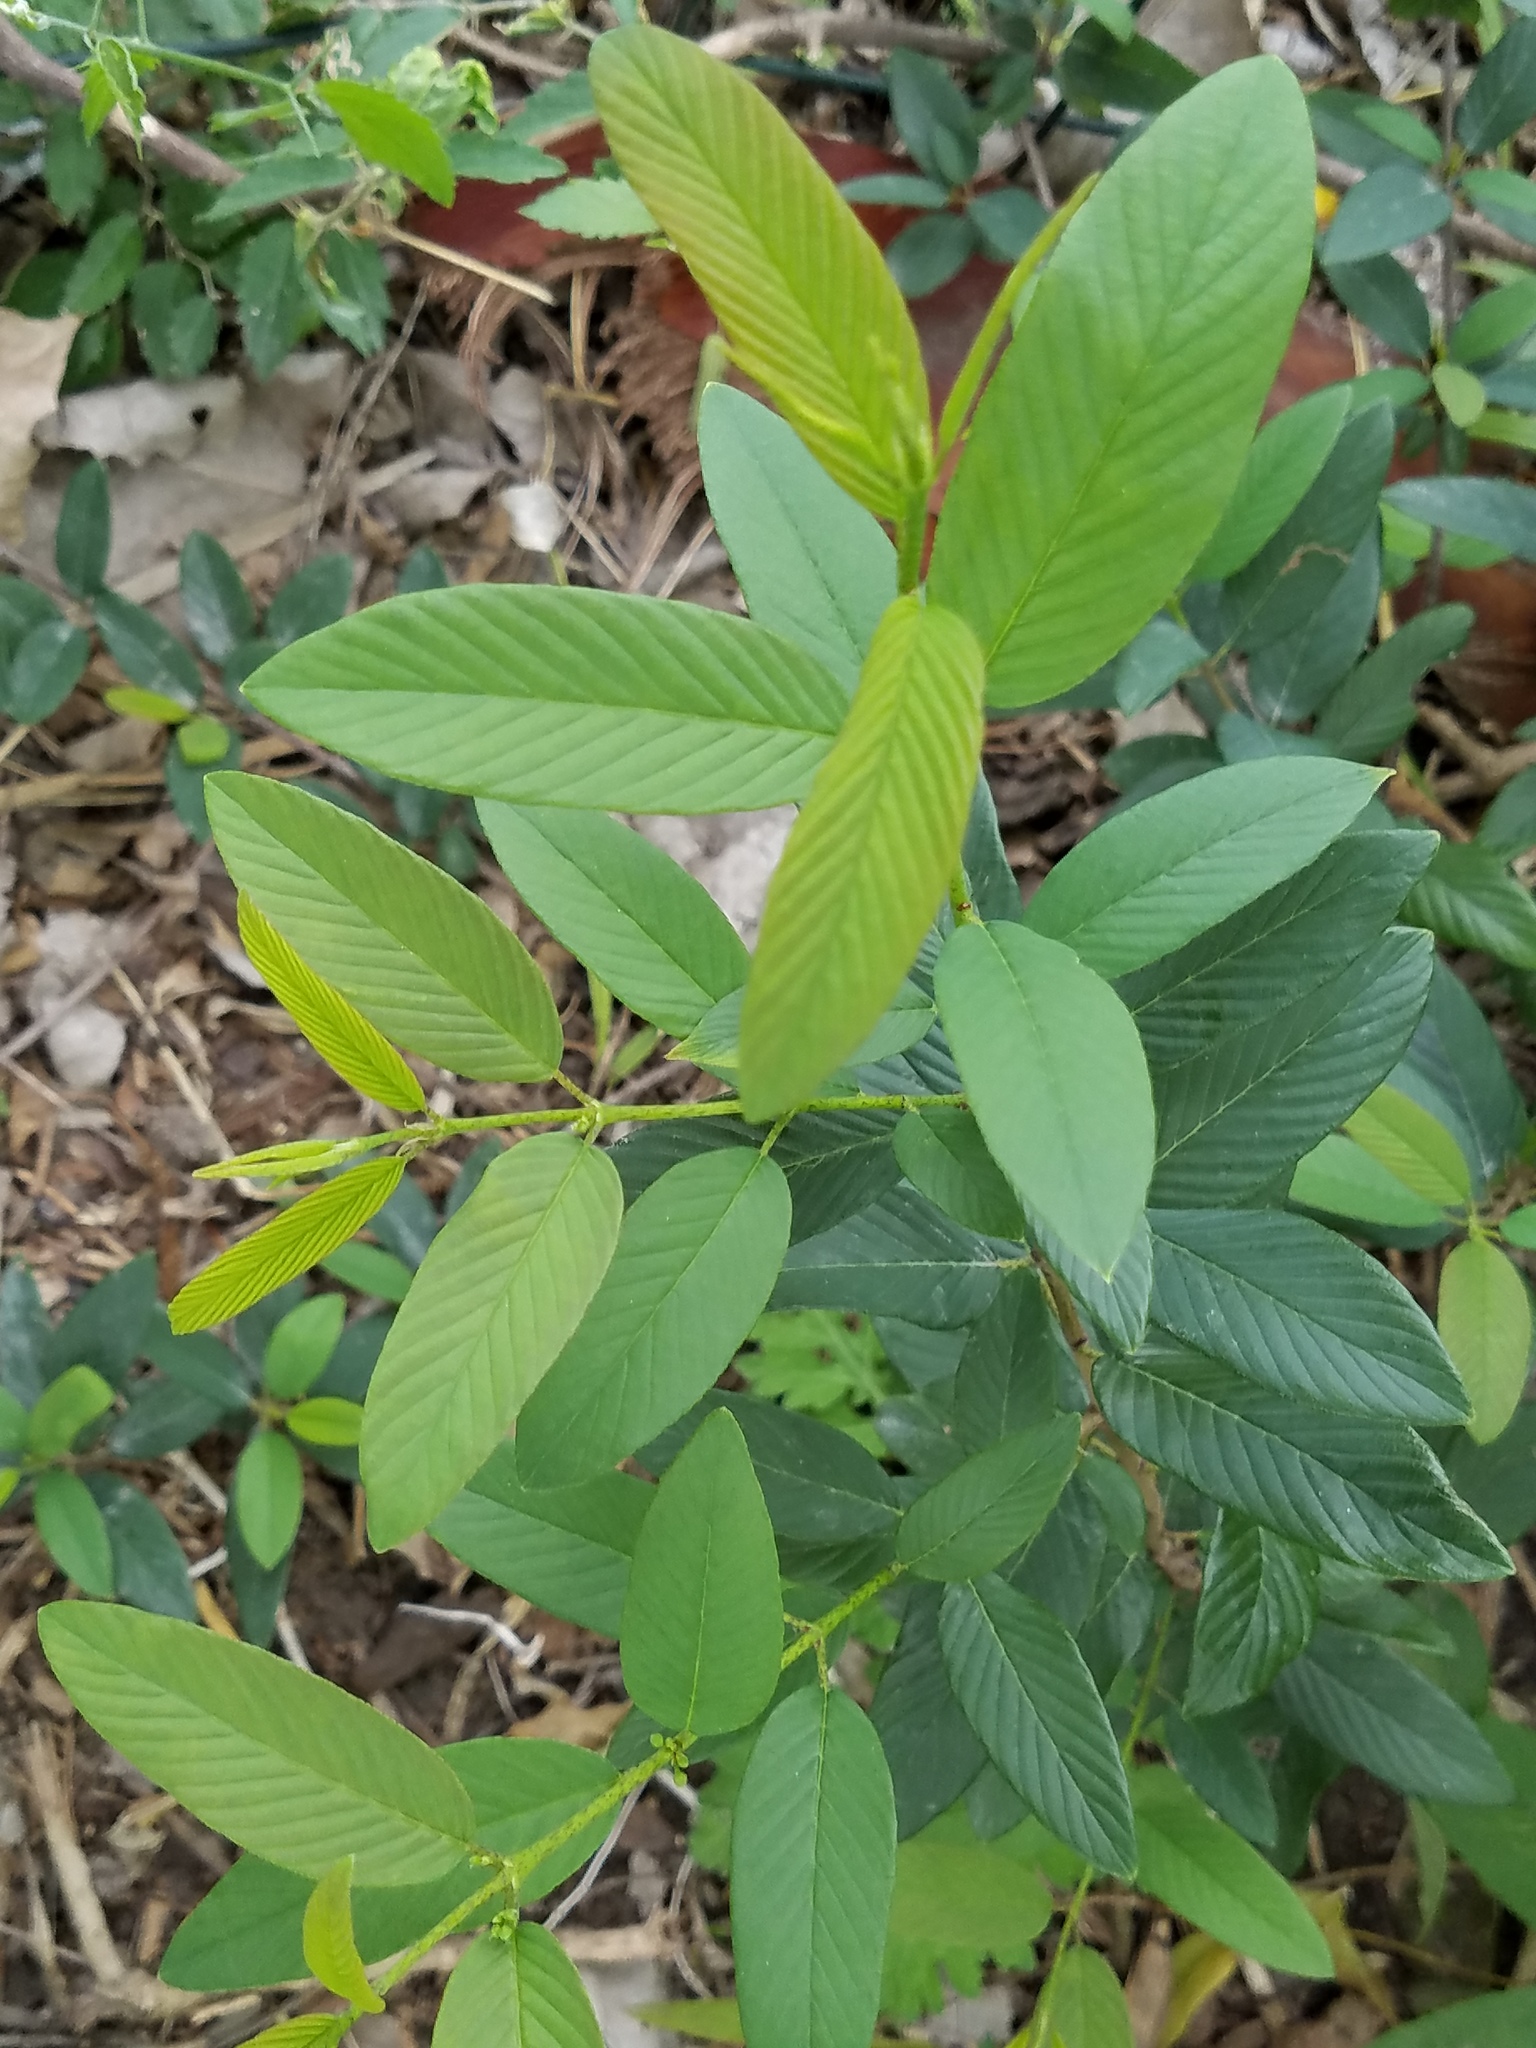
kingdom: Plantae
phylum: Tracheophyta
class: Magnoliopsida
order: Rosales
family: Rhamnaceae
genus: Karwinskia
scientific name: Karwinskia humboldtiana
